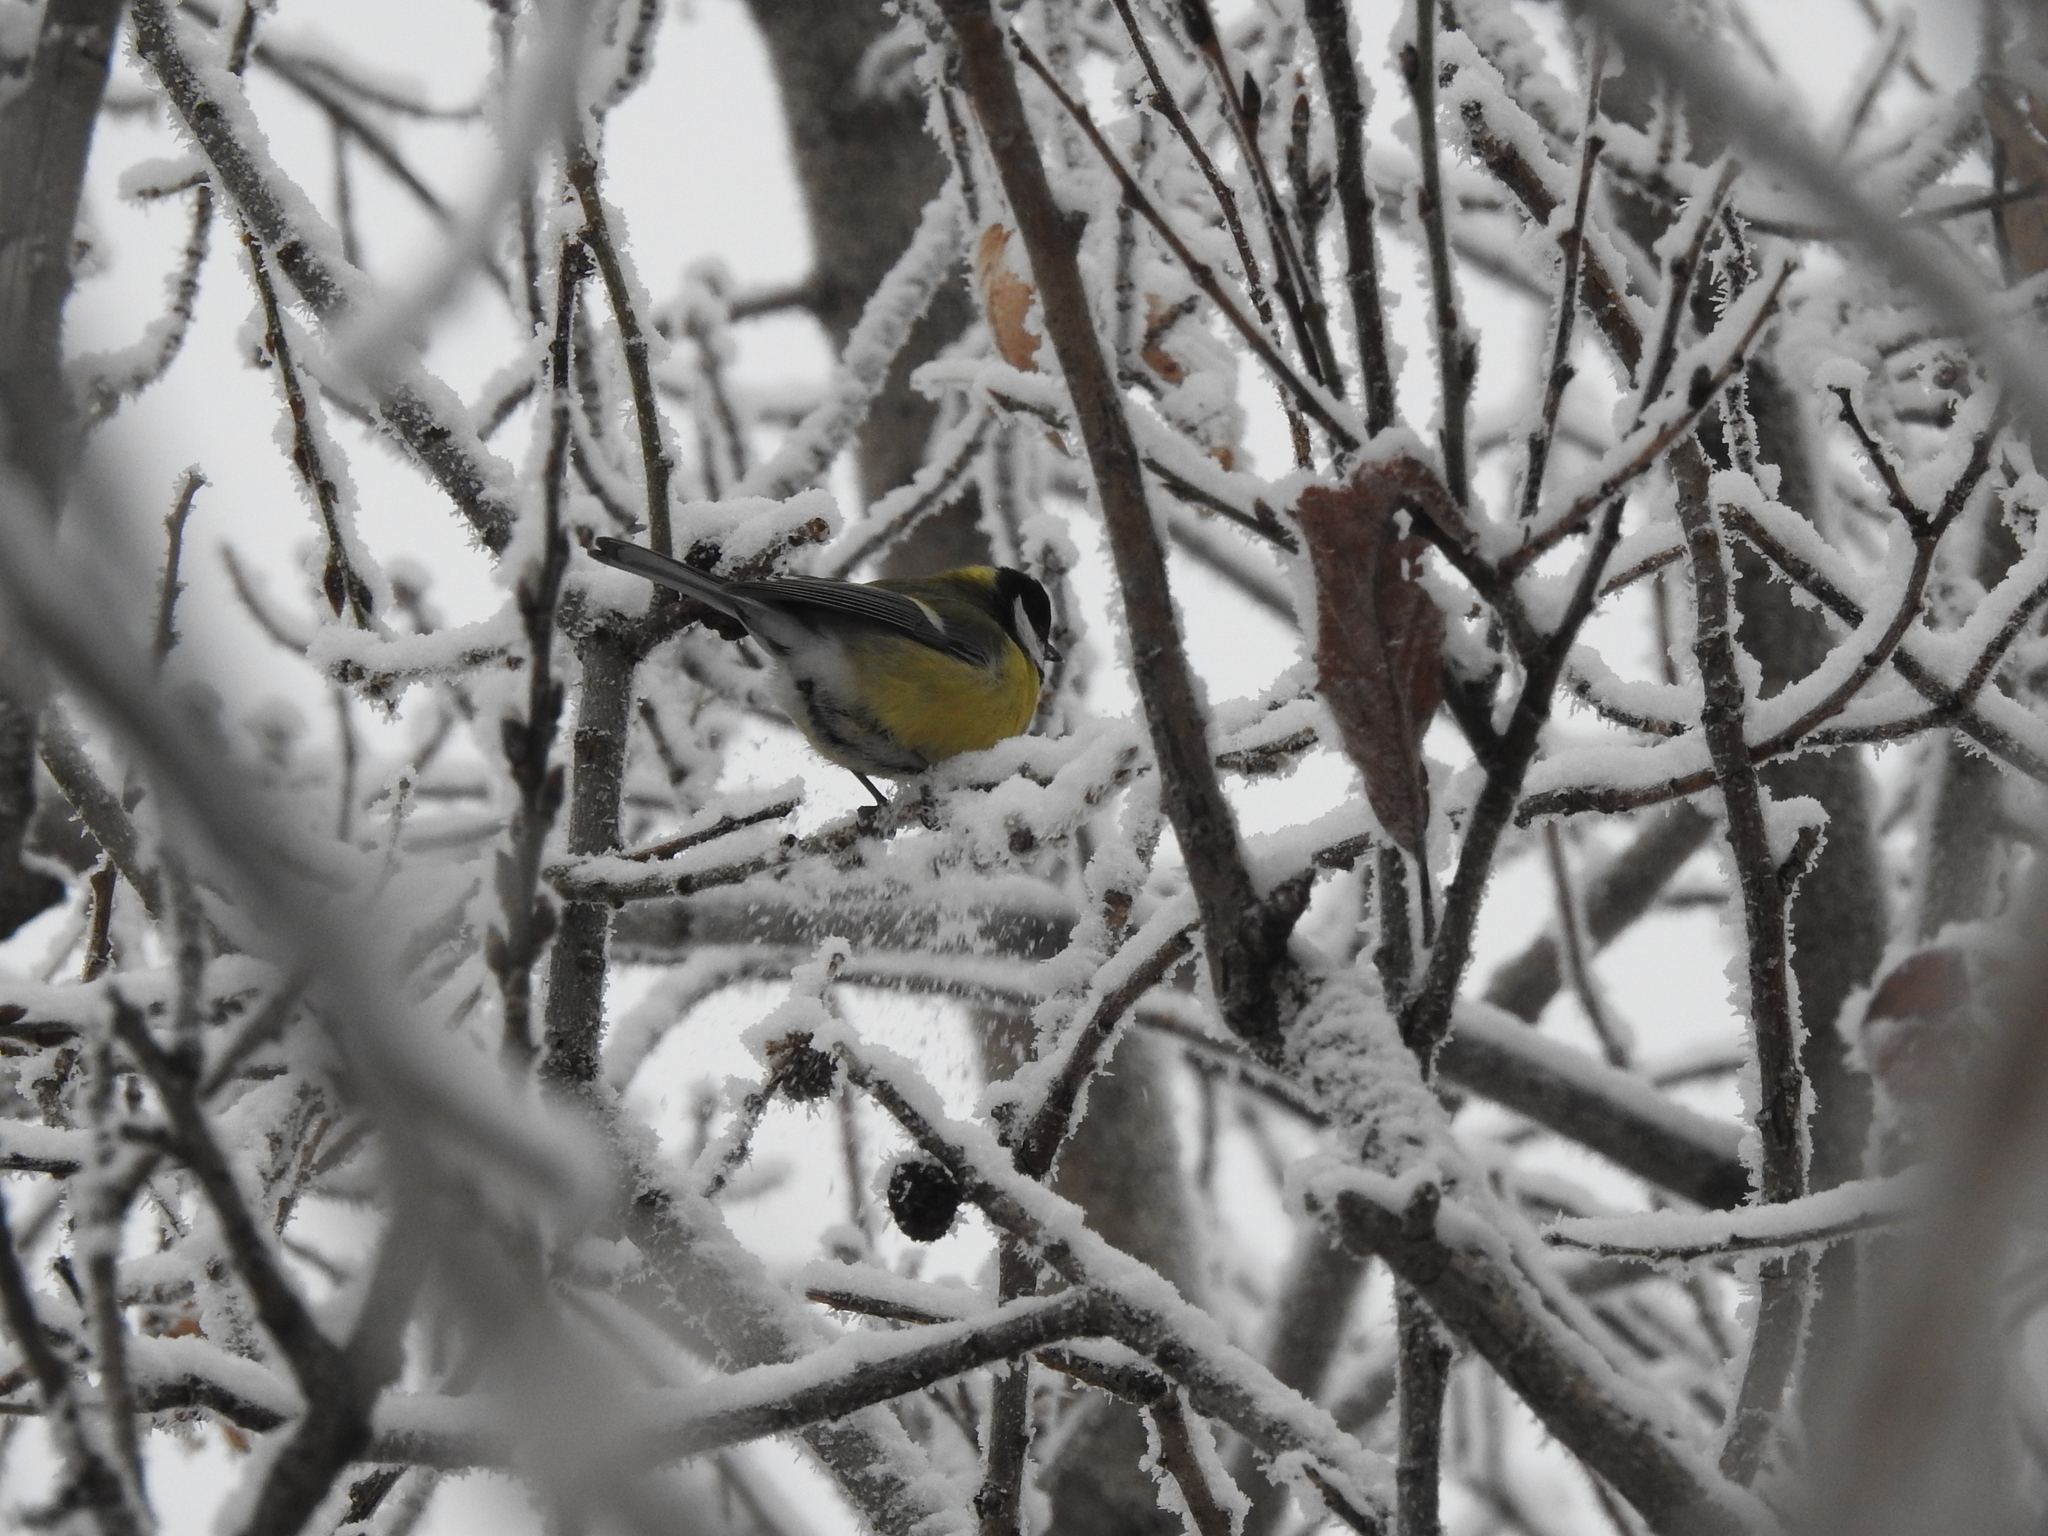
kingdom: Animalia
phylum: Chordata
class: Aves
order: Passeriformes
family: Paridae
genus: Parus
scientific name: Parus major
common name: Great tit
